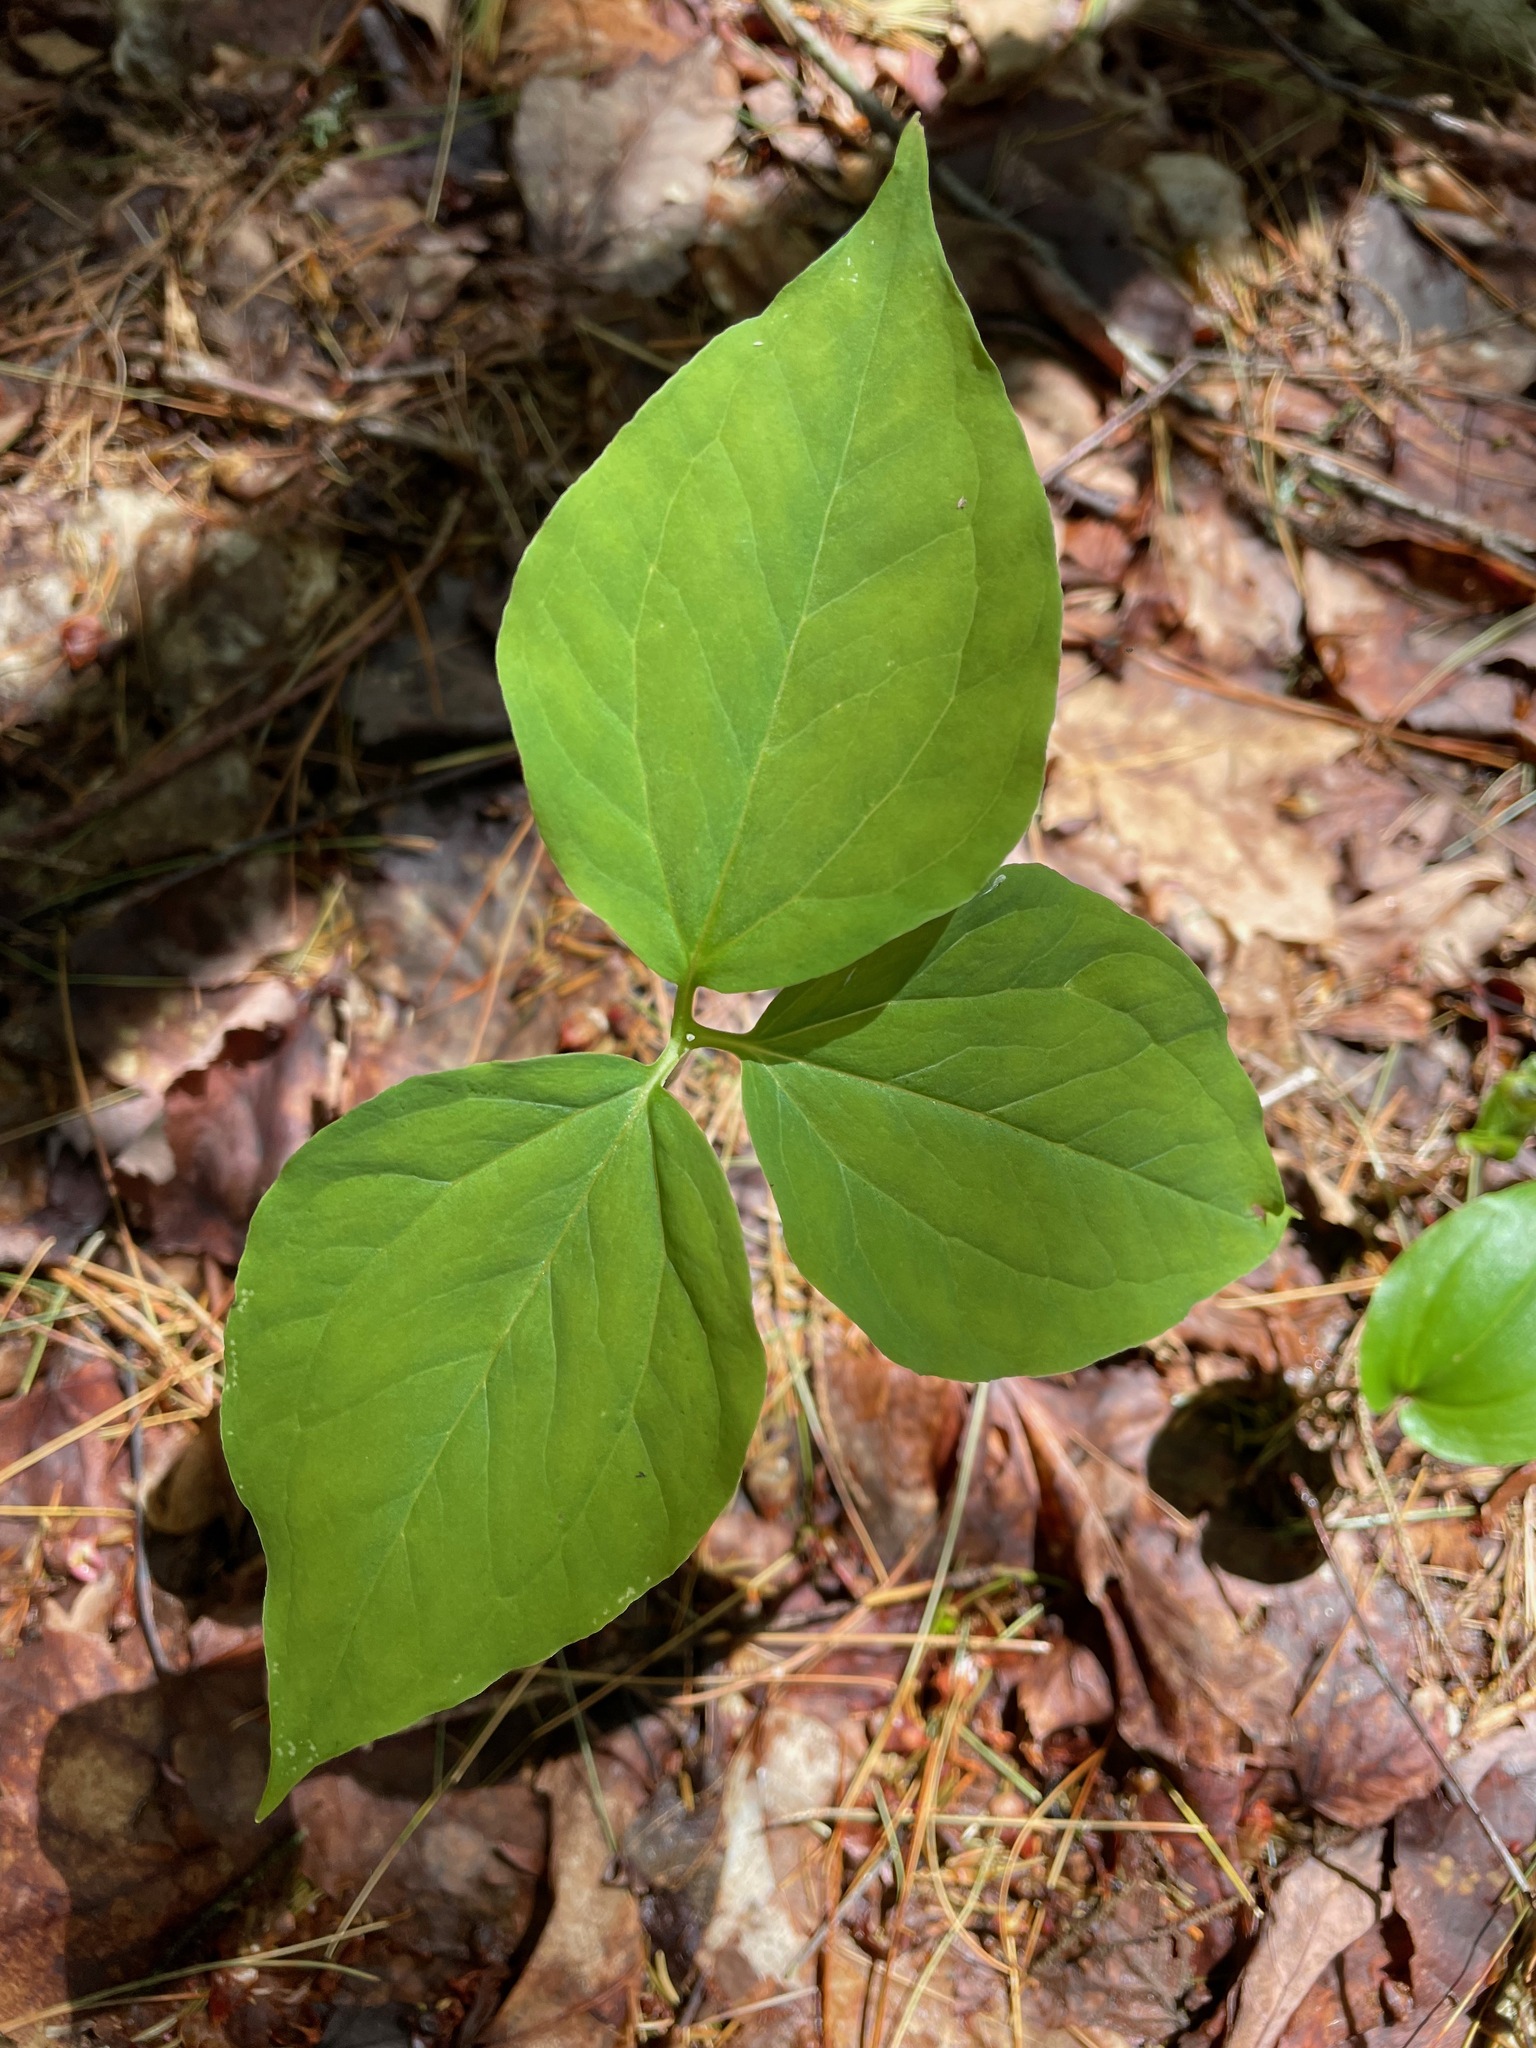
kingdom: Plantae
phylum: Tracheophyta
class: Liliopsida
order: Liliales
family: Melanthiaceae
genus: Trillium
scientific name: Trillium undulatum
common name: Paint trillium
